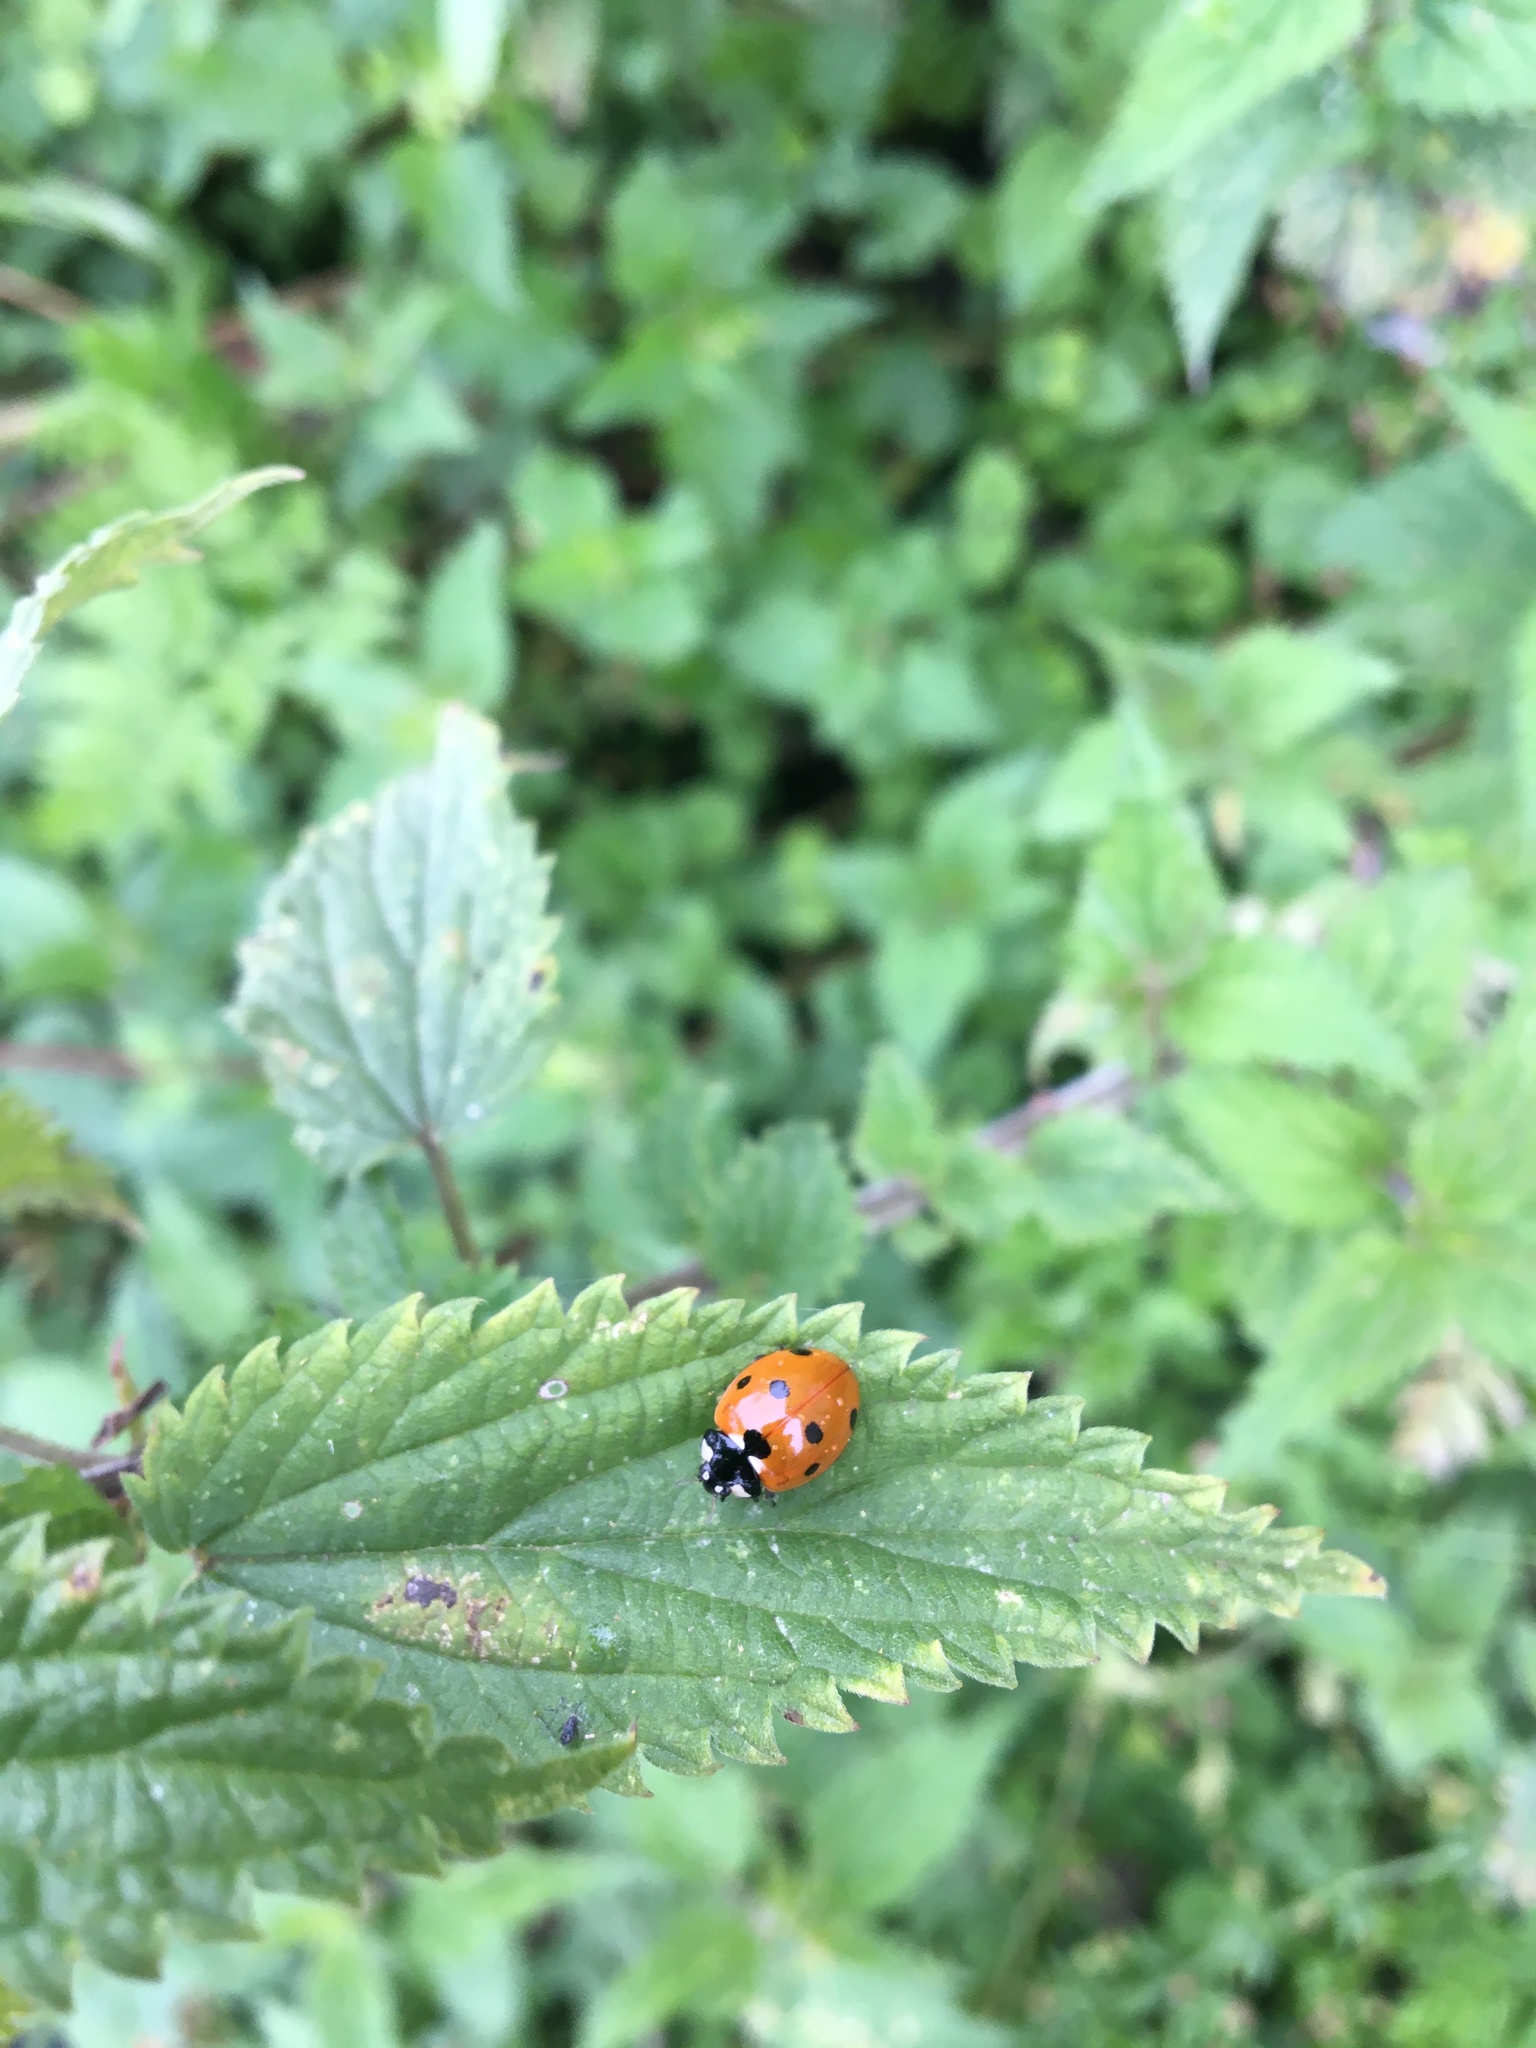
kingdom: Animalia
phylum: Arthropoda
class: Insecta
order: Coleoptera
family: Coccinellidae
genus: Coccinella
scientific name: Coccinella septempunctata
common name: Sevenspotted lady beetle
